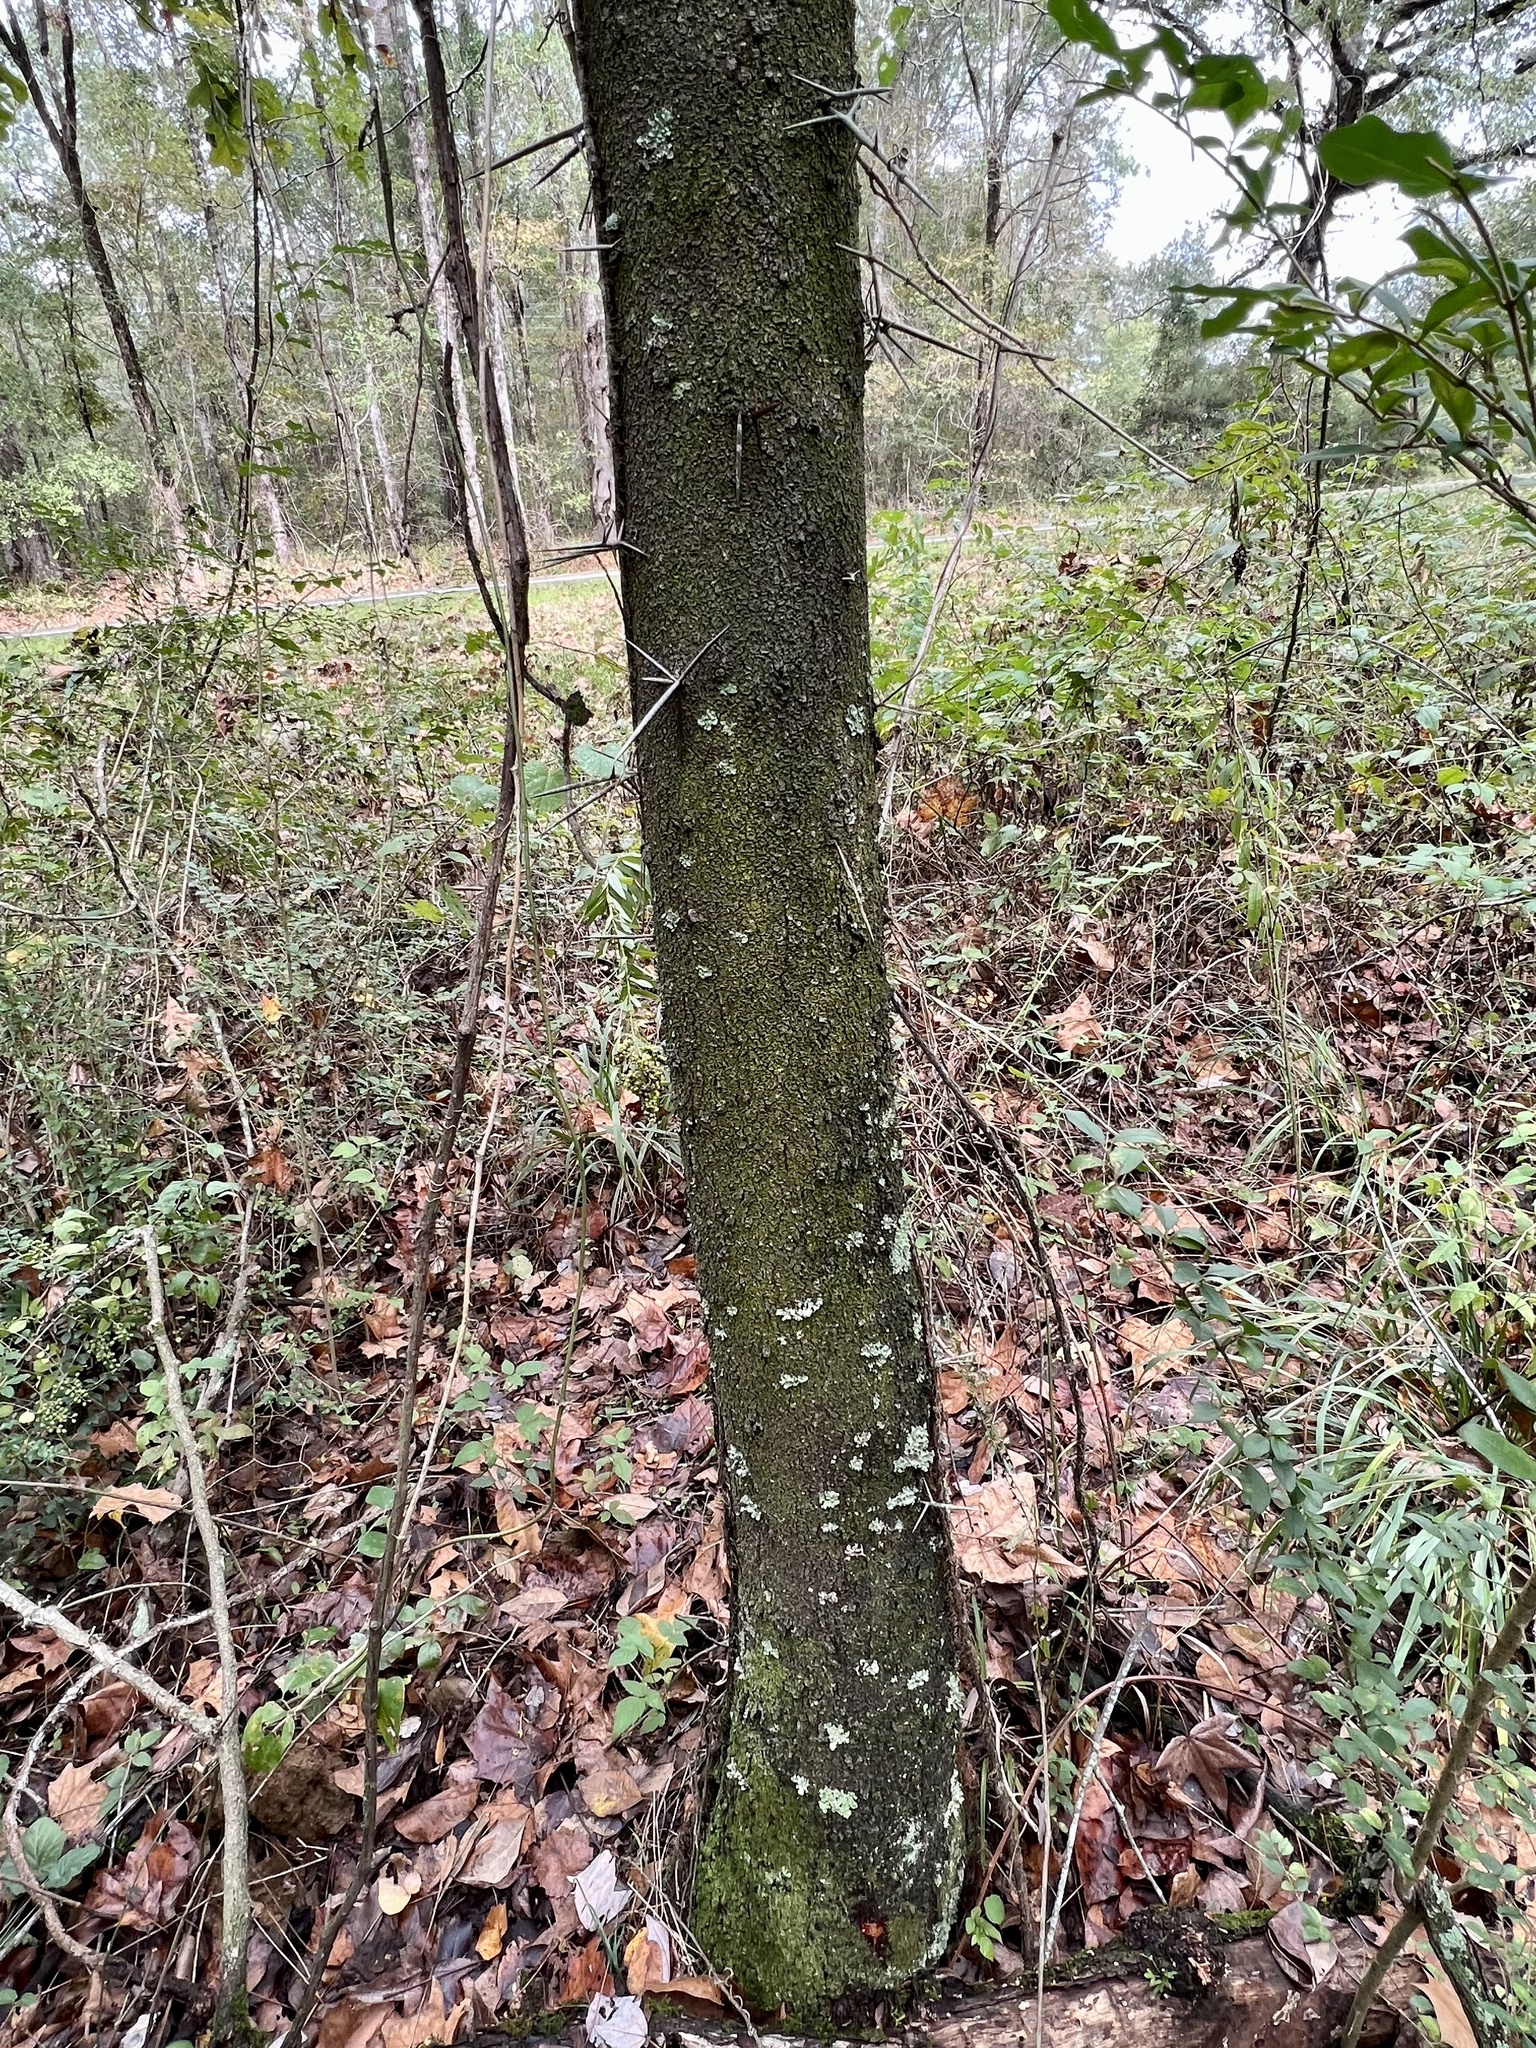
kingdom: Plantae
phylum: Tracheophyta
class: Magnoliopsida
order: Fabales
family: Fabaceae
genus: Gleditsia
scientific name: Gleditsia triacanthos
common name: Common honeylocust
